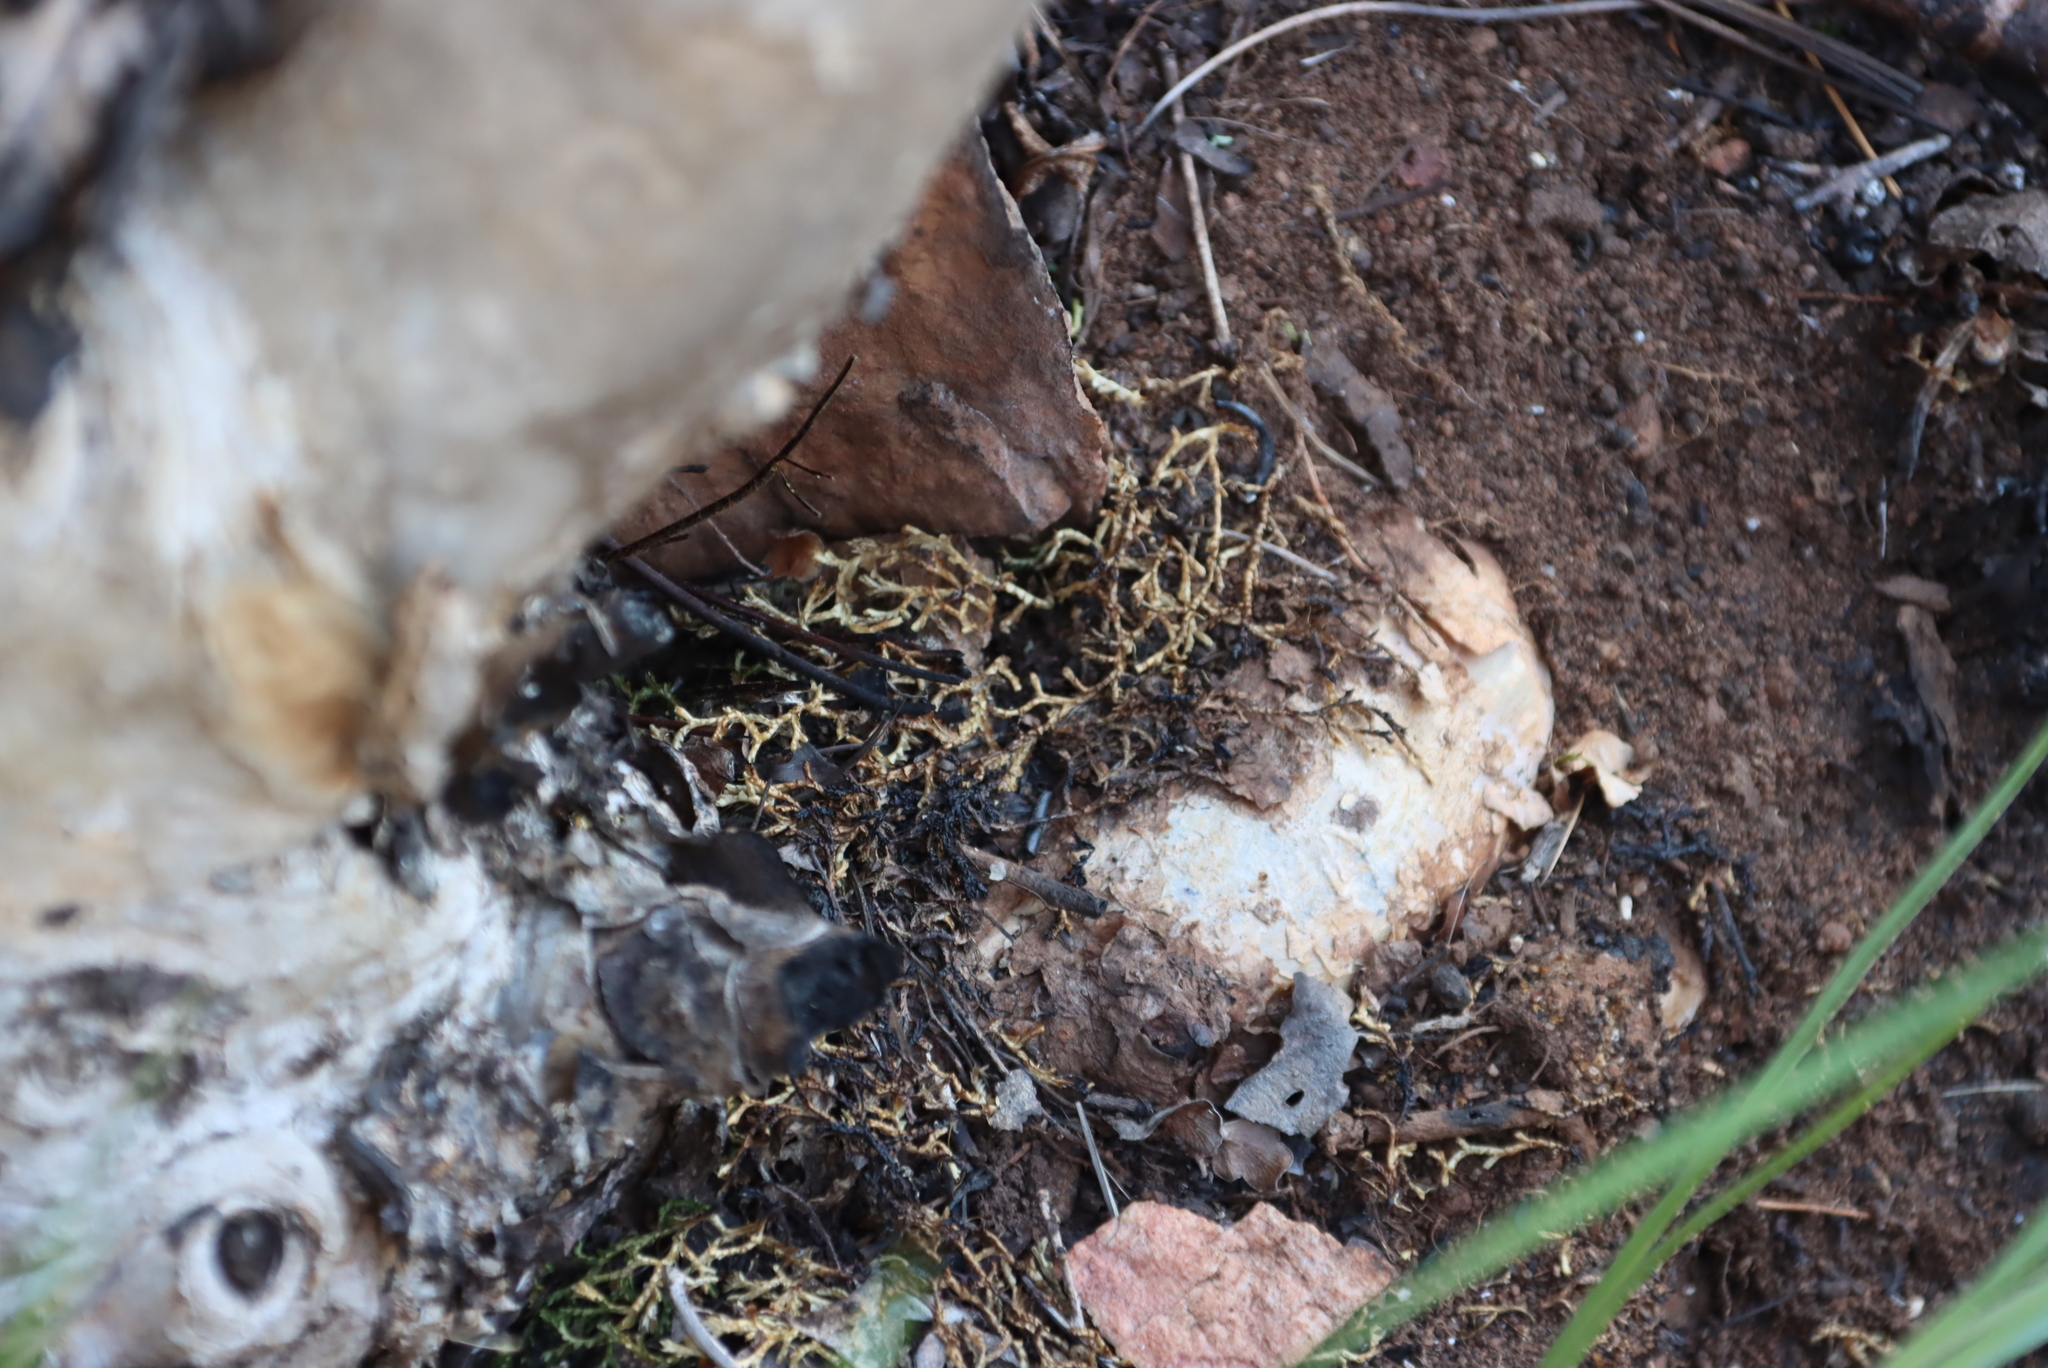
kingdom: Plantae
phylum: Tracheophyta
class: Lycopodiopsida
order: Selaginellales
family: Selaginellaceae
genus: Selaginella
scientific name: Selaginella dregei
